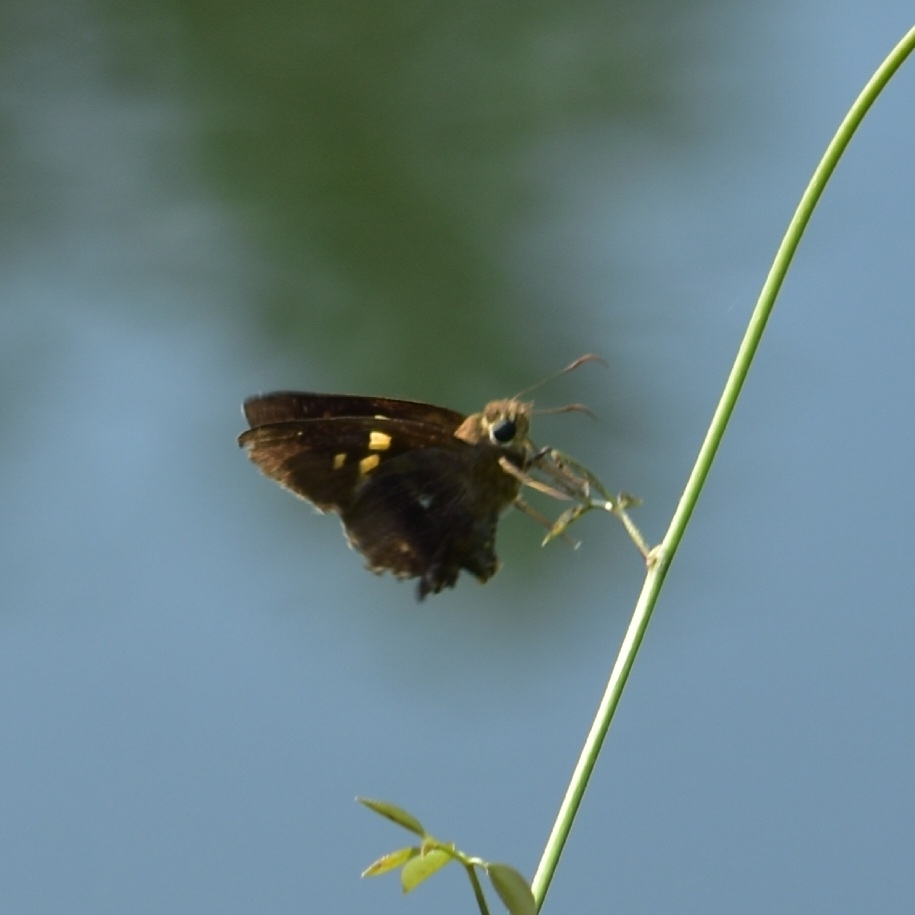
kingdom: Animalia
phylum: Arthropoda
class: Insecta
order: Lepidoptera
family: Hesperiidae
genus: Hasora
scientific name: Hasora badra
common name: Common awl
